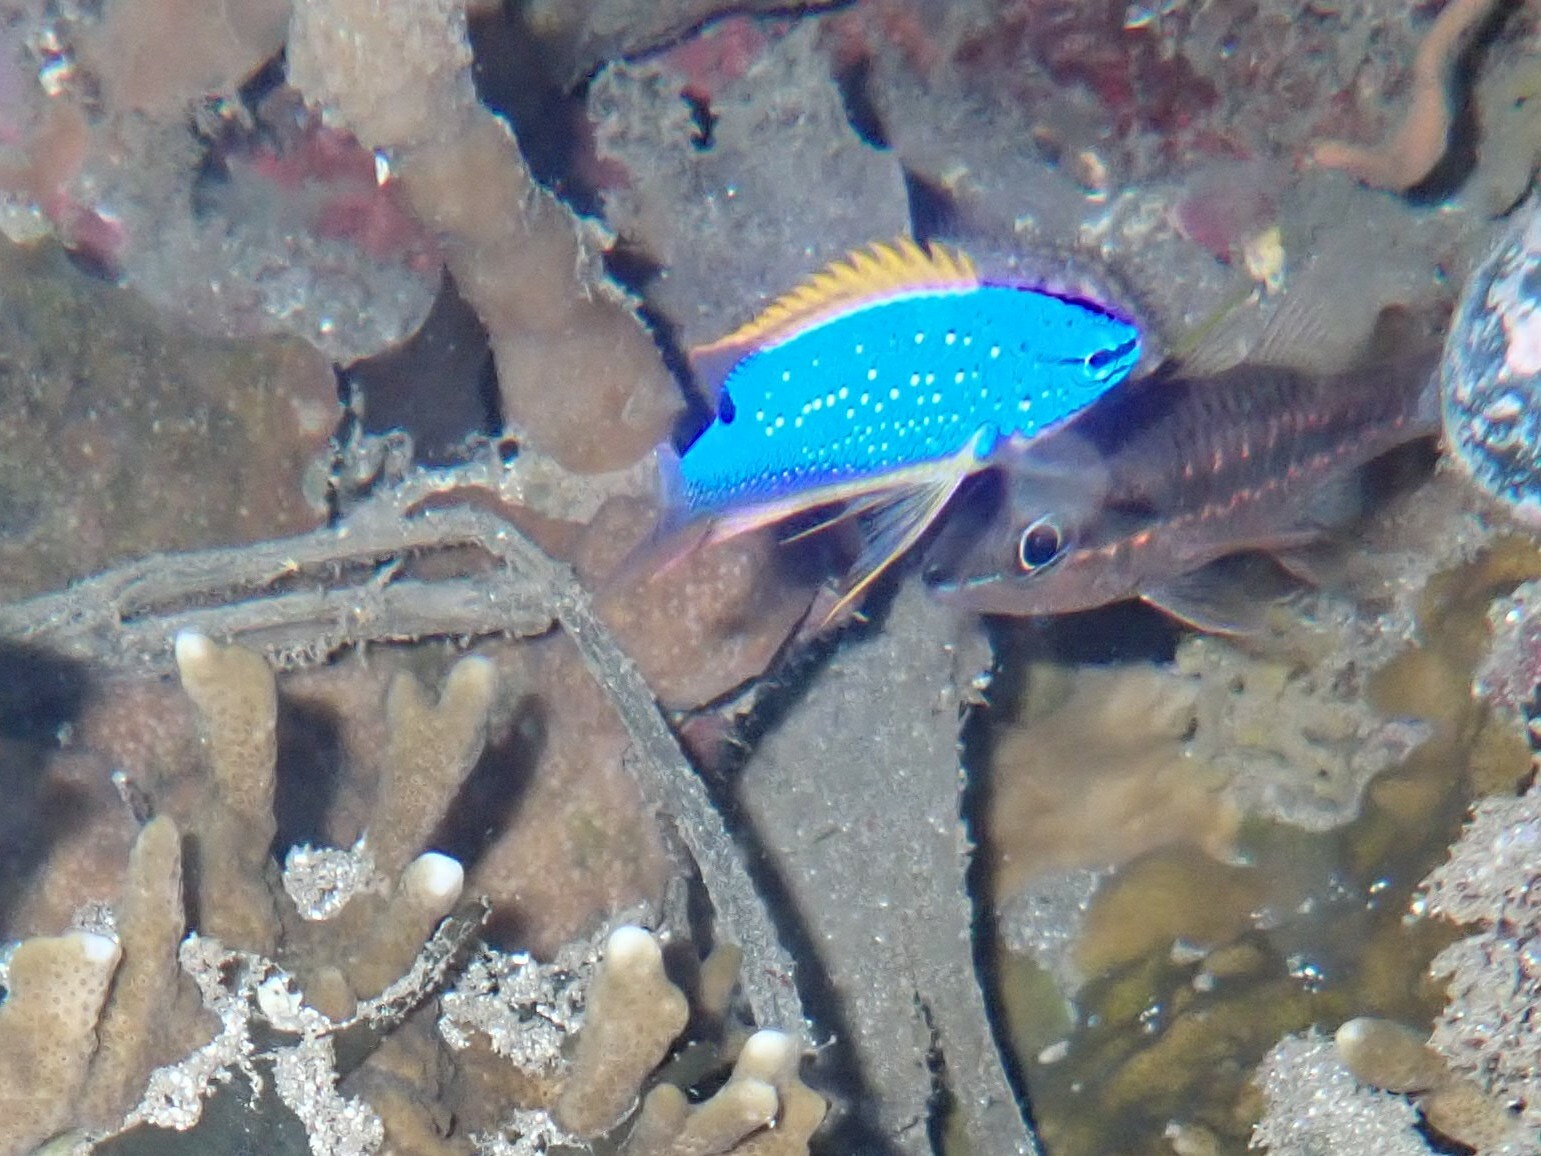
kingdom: Animalia
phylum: Chordata
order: Perciformes
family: Pomacentridae
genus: Chrysiptera
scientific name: Chrysiptera taupou
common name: Fiji damsel
